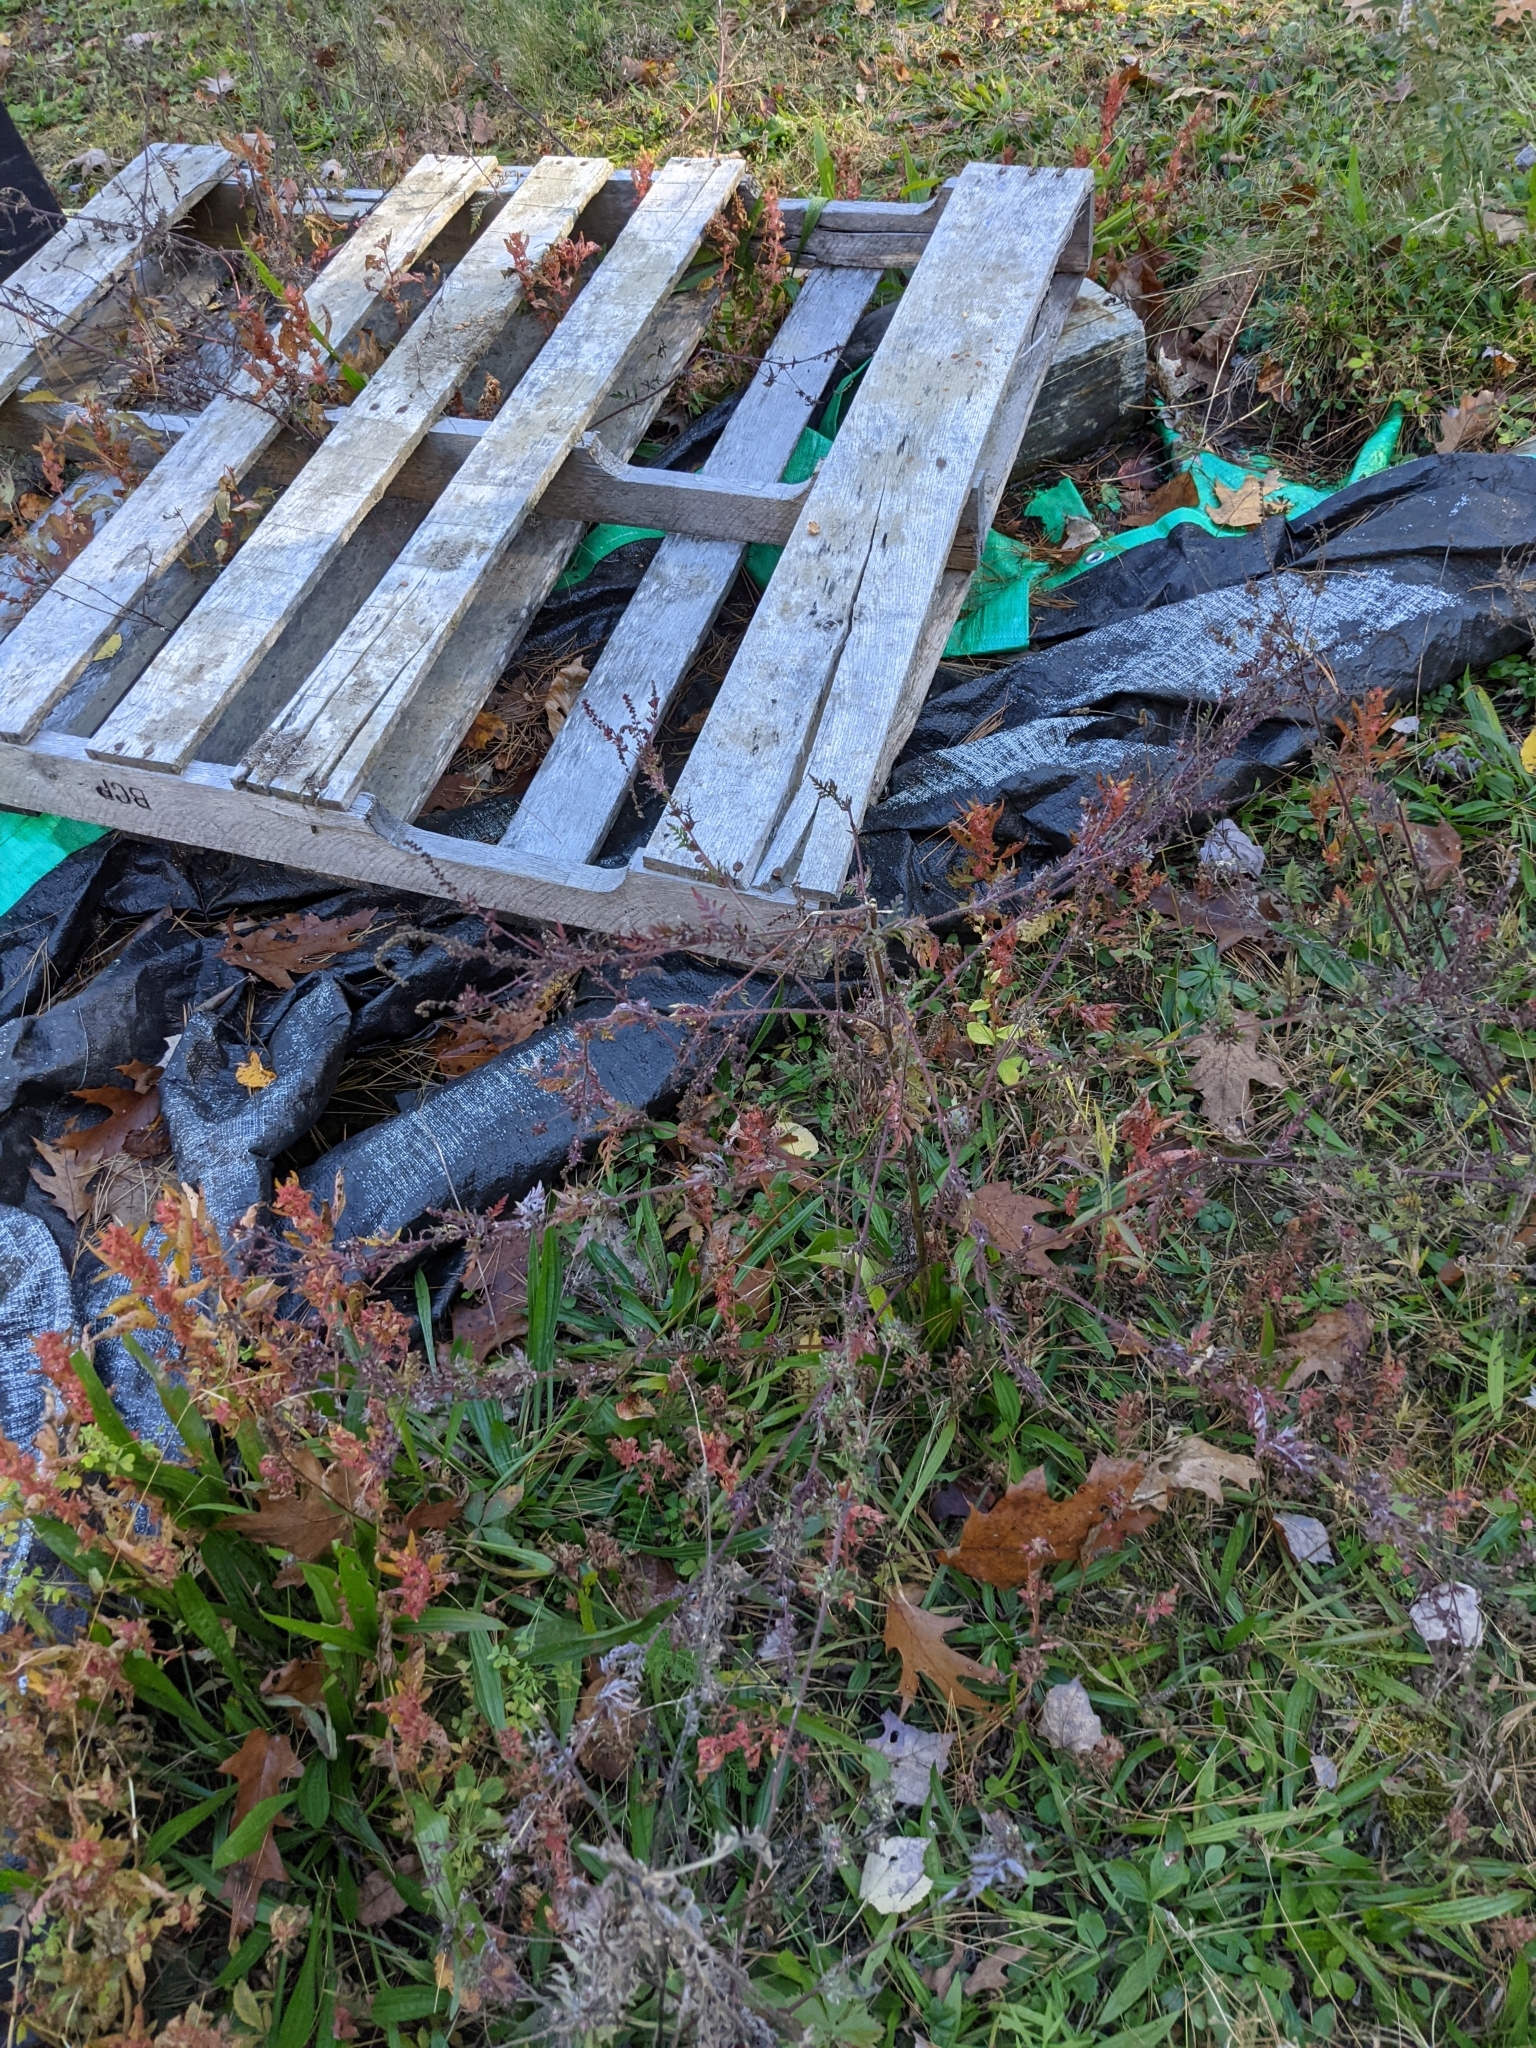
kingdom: Plantae
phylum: Tracheophyta
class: Magnoliopsida
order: Asterales
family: Asteraceae
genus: Ambrosia
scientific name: Ambrosia artemisiifolia
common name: Annual ragweed
